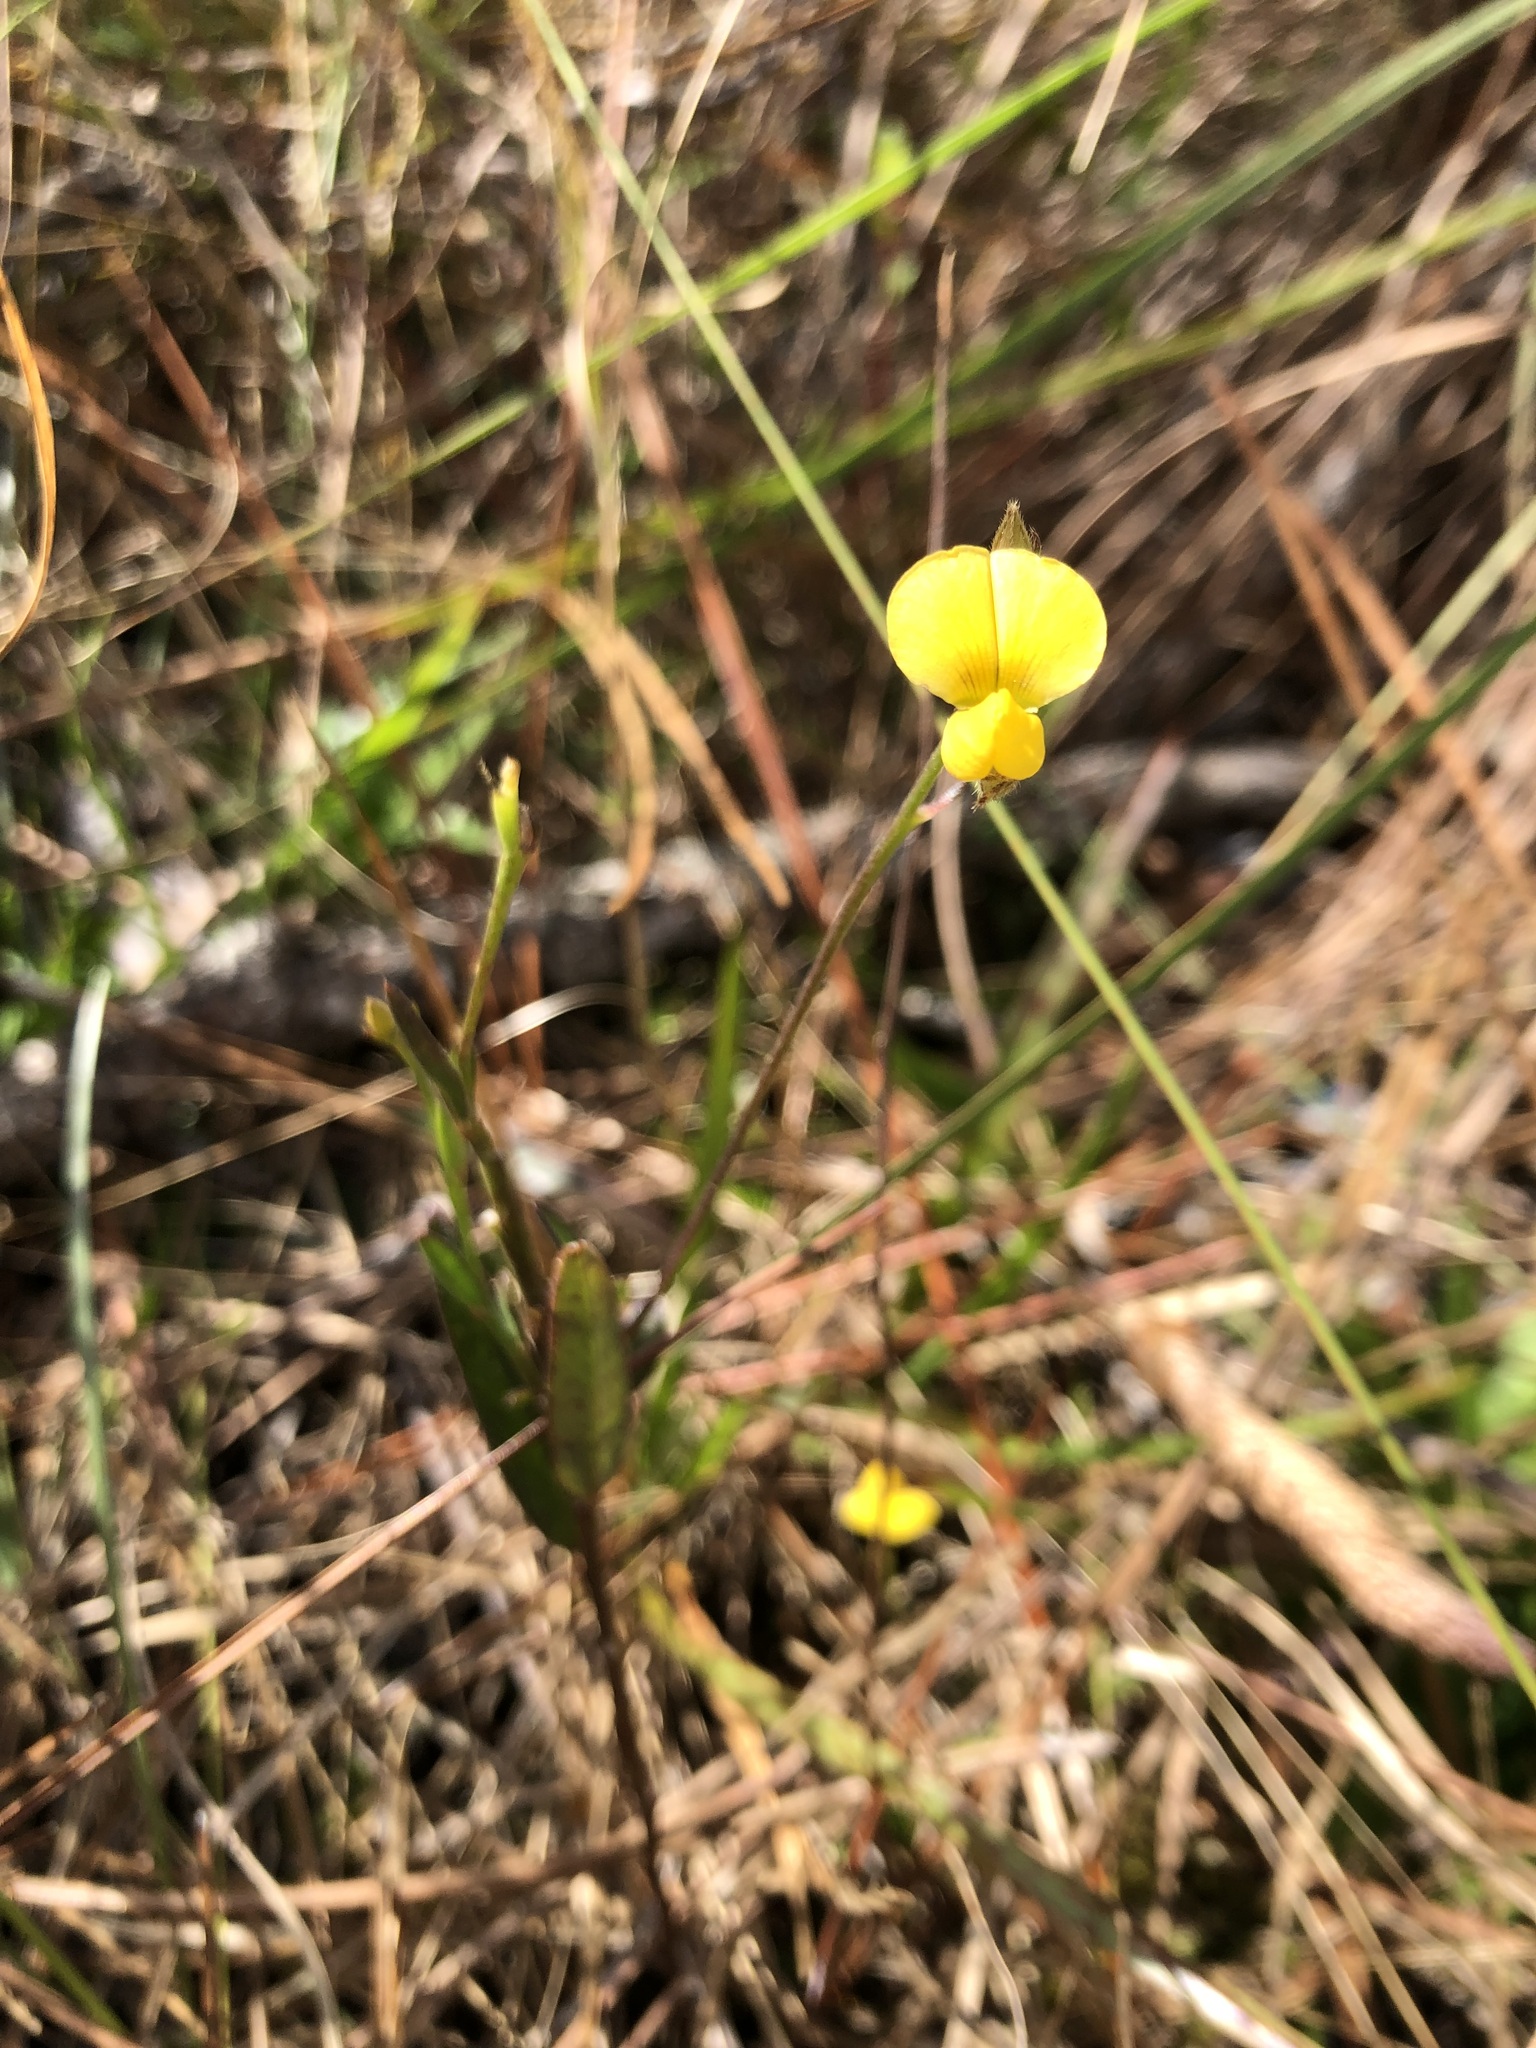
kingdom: Plantae
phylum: Tracheophyta
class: Magnoliopsida
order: Fabales
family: Fabaceae
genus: Crotalaria
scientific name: Crotalaria rotundifolia
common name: Prostrate rattlebox
